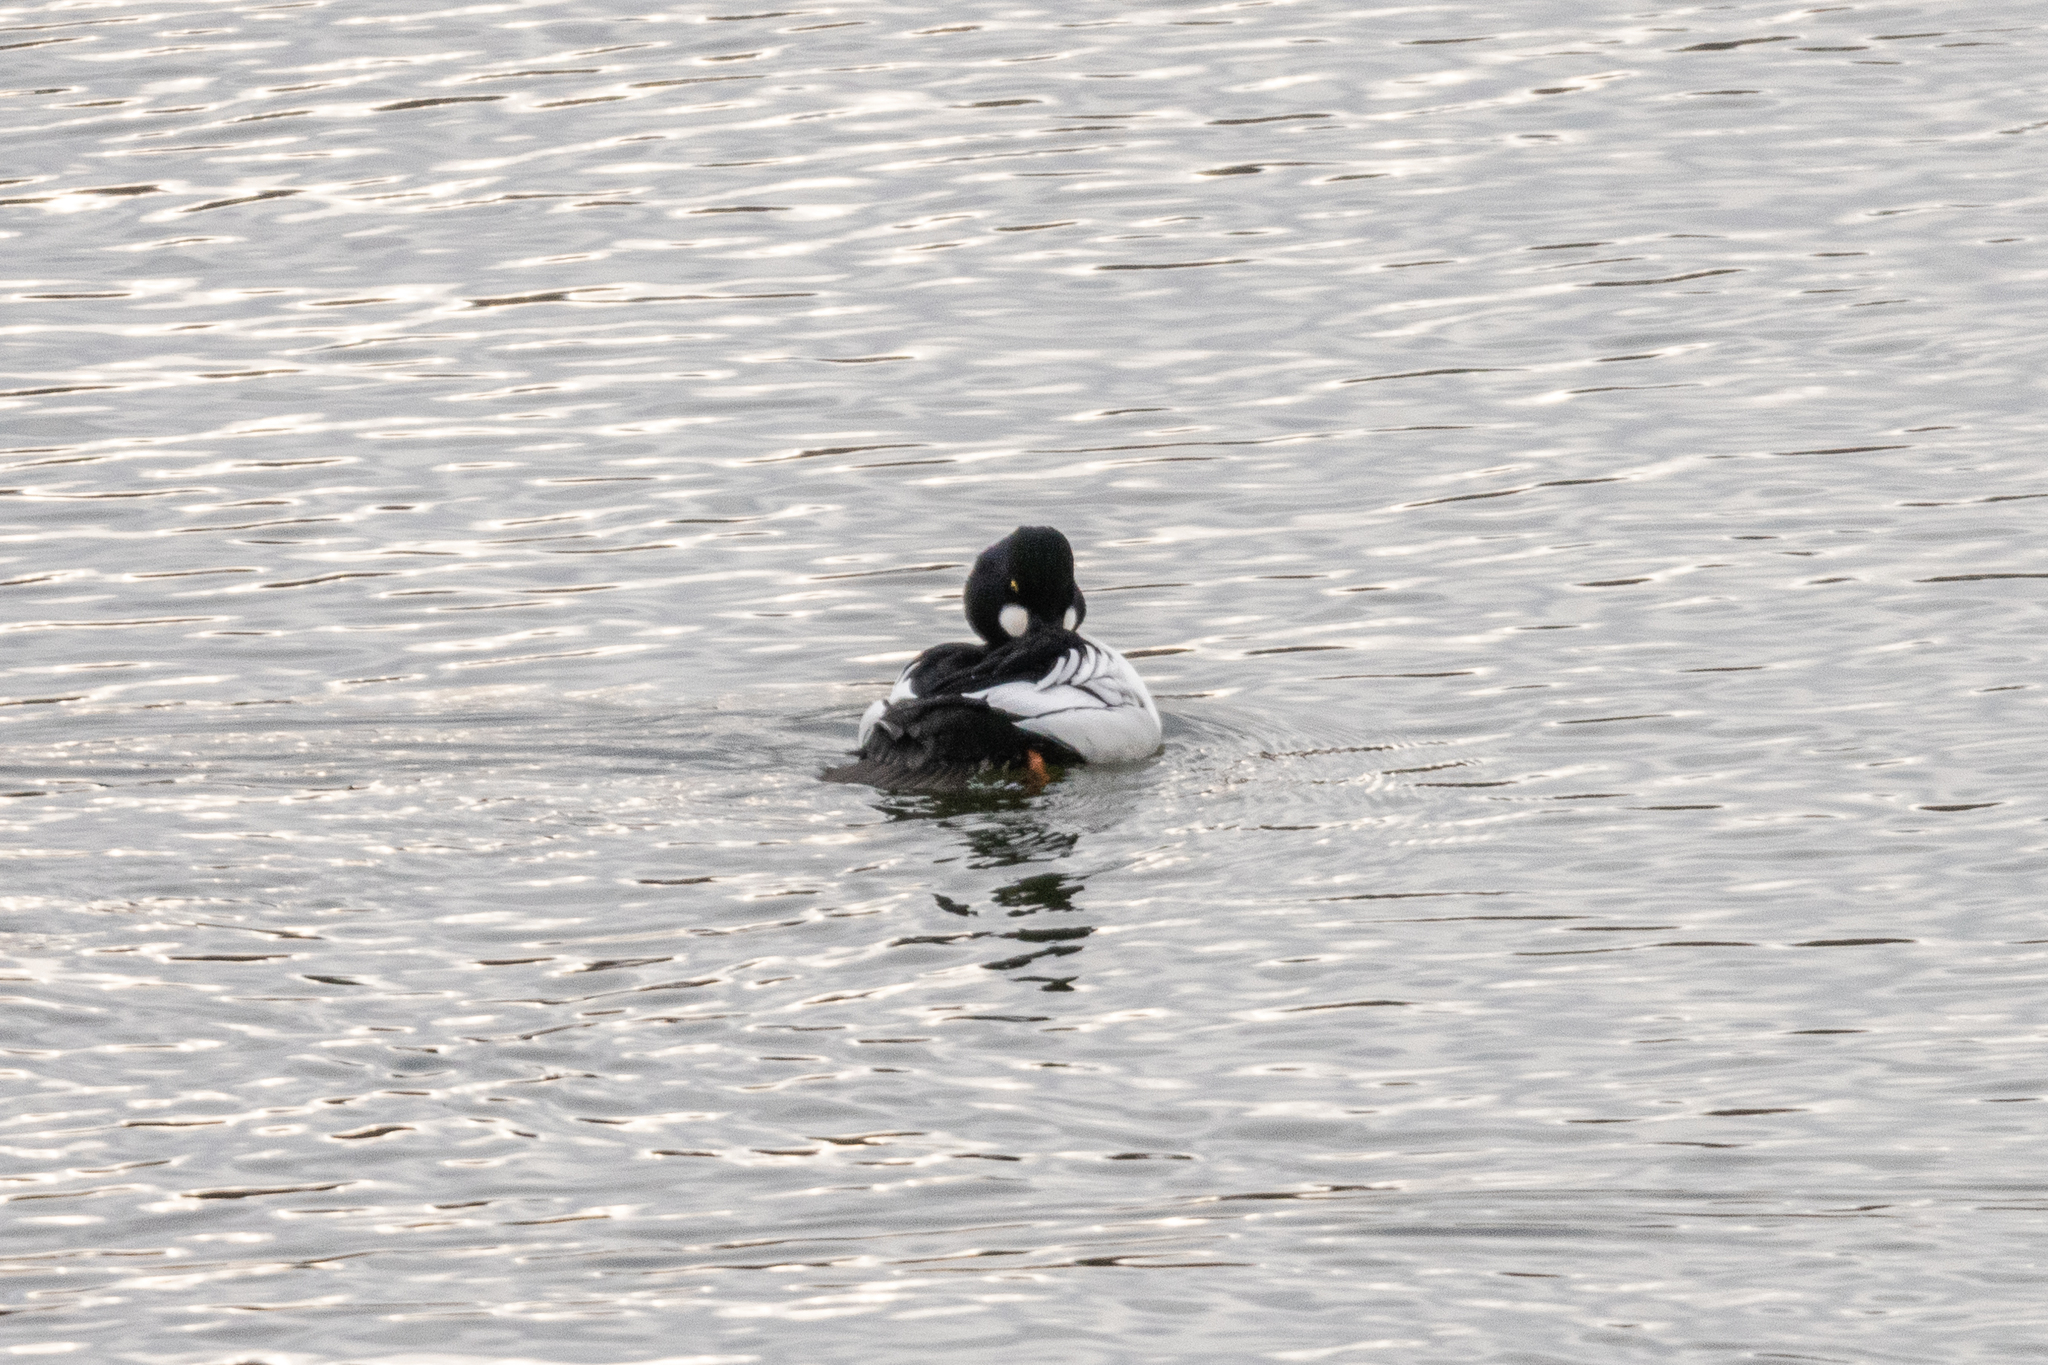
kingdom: Animalia
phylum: Chordata
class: Aves
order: Anseriformes
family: Anatidae
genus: Bucephala
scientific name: Bucephala clangula
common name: Common goldeneye
